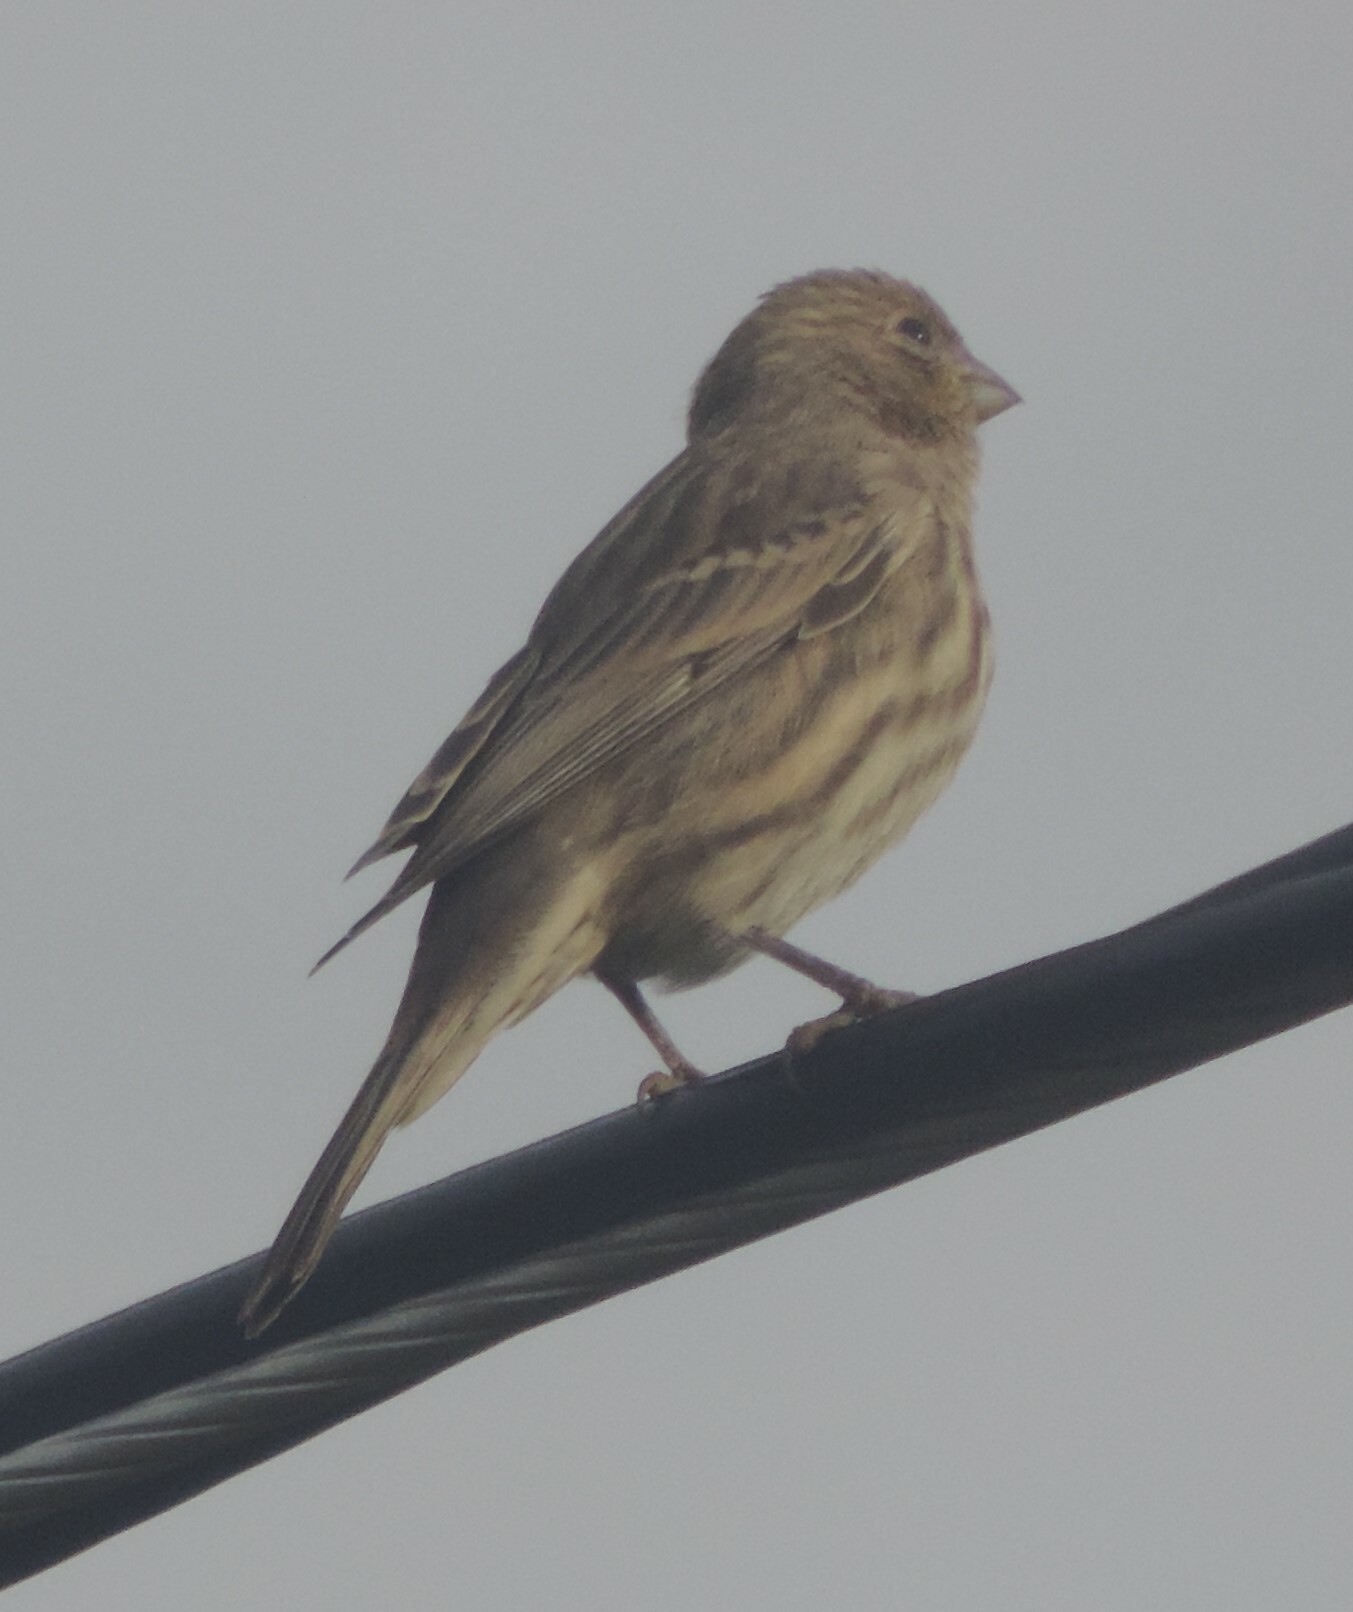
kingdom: Animalia
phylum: Chordata
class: Aves
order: Passeriformes
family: Fringillidae
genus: Haemorhous
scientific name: Haemorhous mexicanus
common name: House finch
